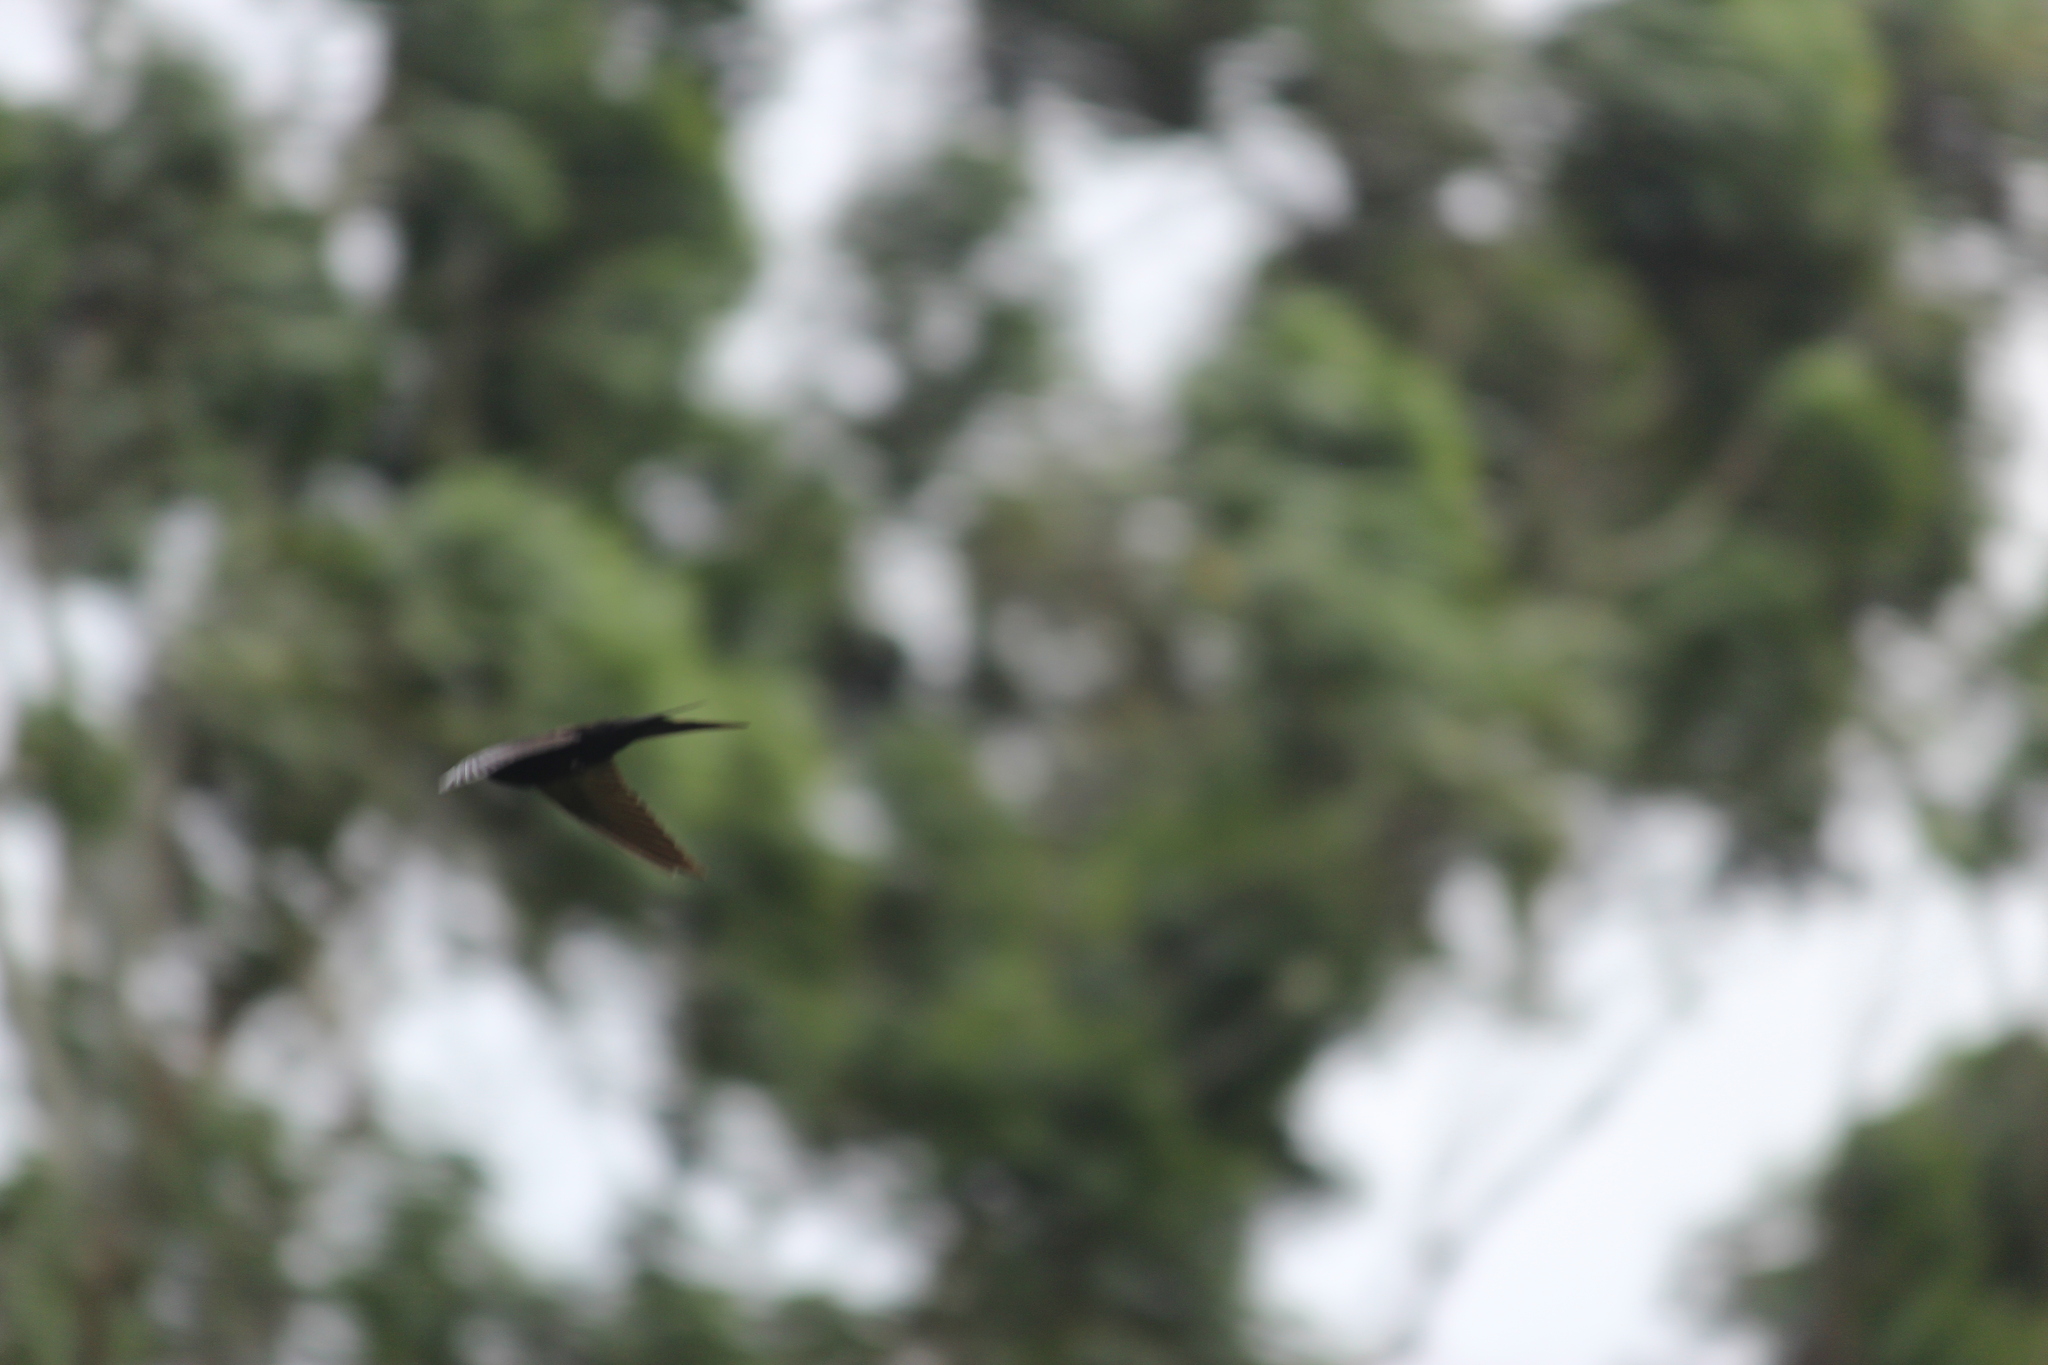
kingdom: Animalia
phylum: Chordata
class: Aves
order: Passeriformes
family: Hirundinidae
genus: Psalidoprocne
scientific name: Psalidoprocne pristoptera
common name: Black saw-wing
